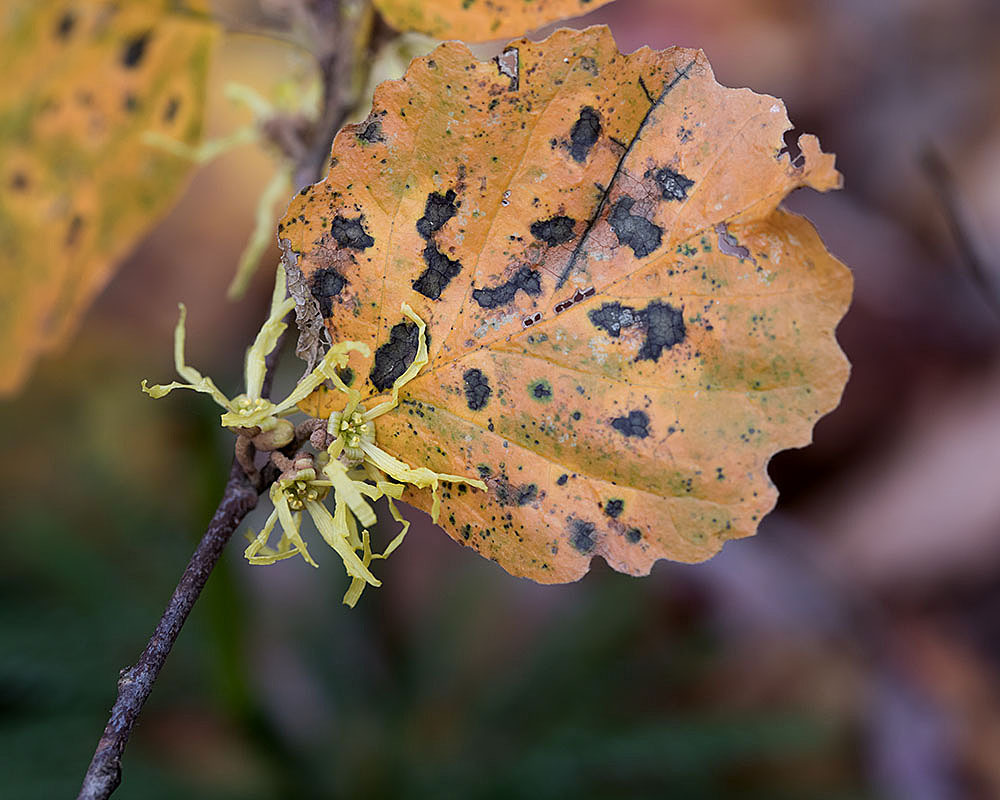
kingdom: Plantae
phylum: Tracheophyta
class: Magnoliopsida
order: Saxifragales
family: Hamamelidaceae
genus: Hamamelis
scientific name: Hamamelis virginiana
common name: Witch-hazel
